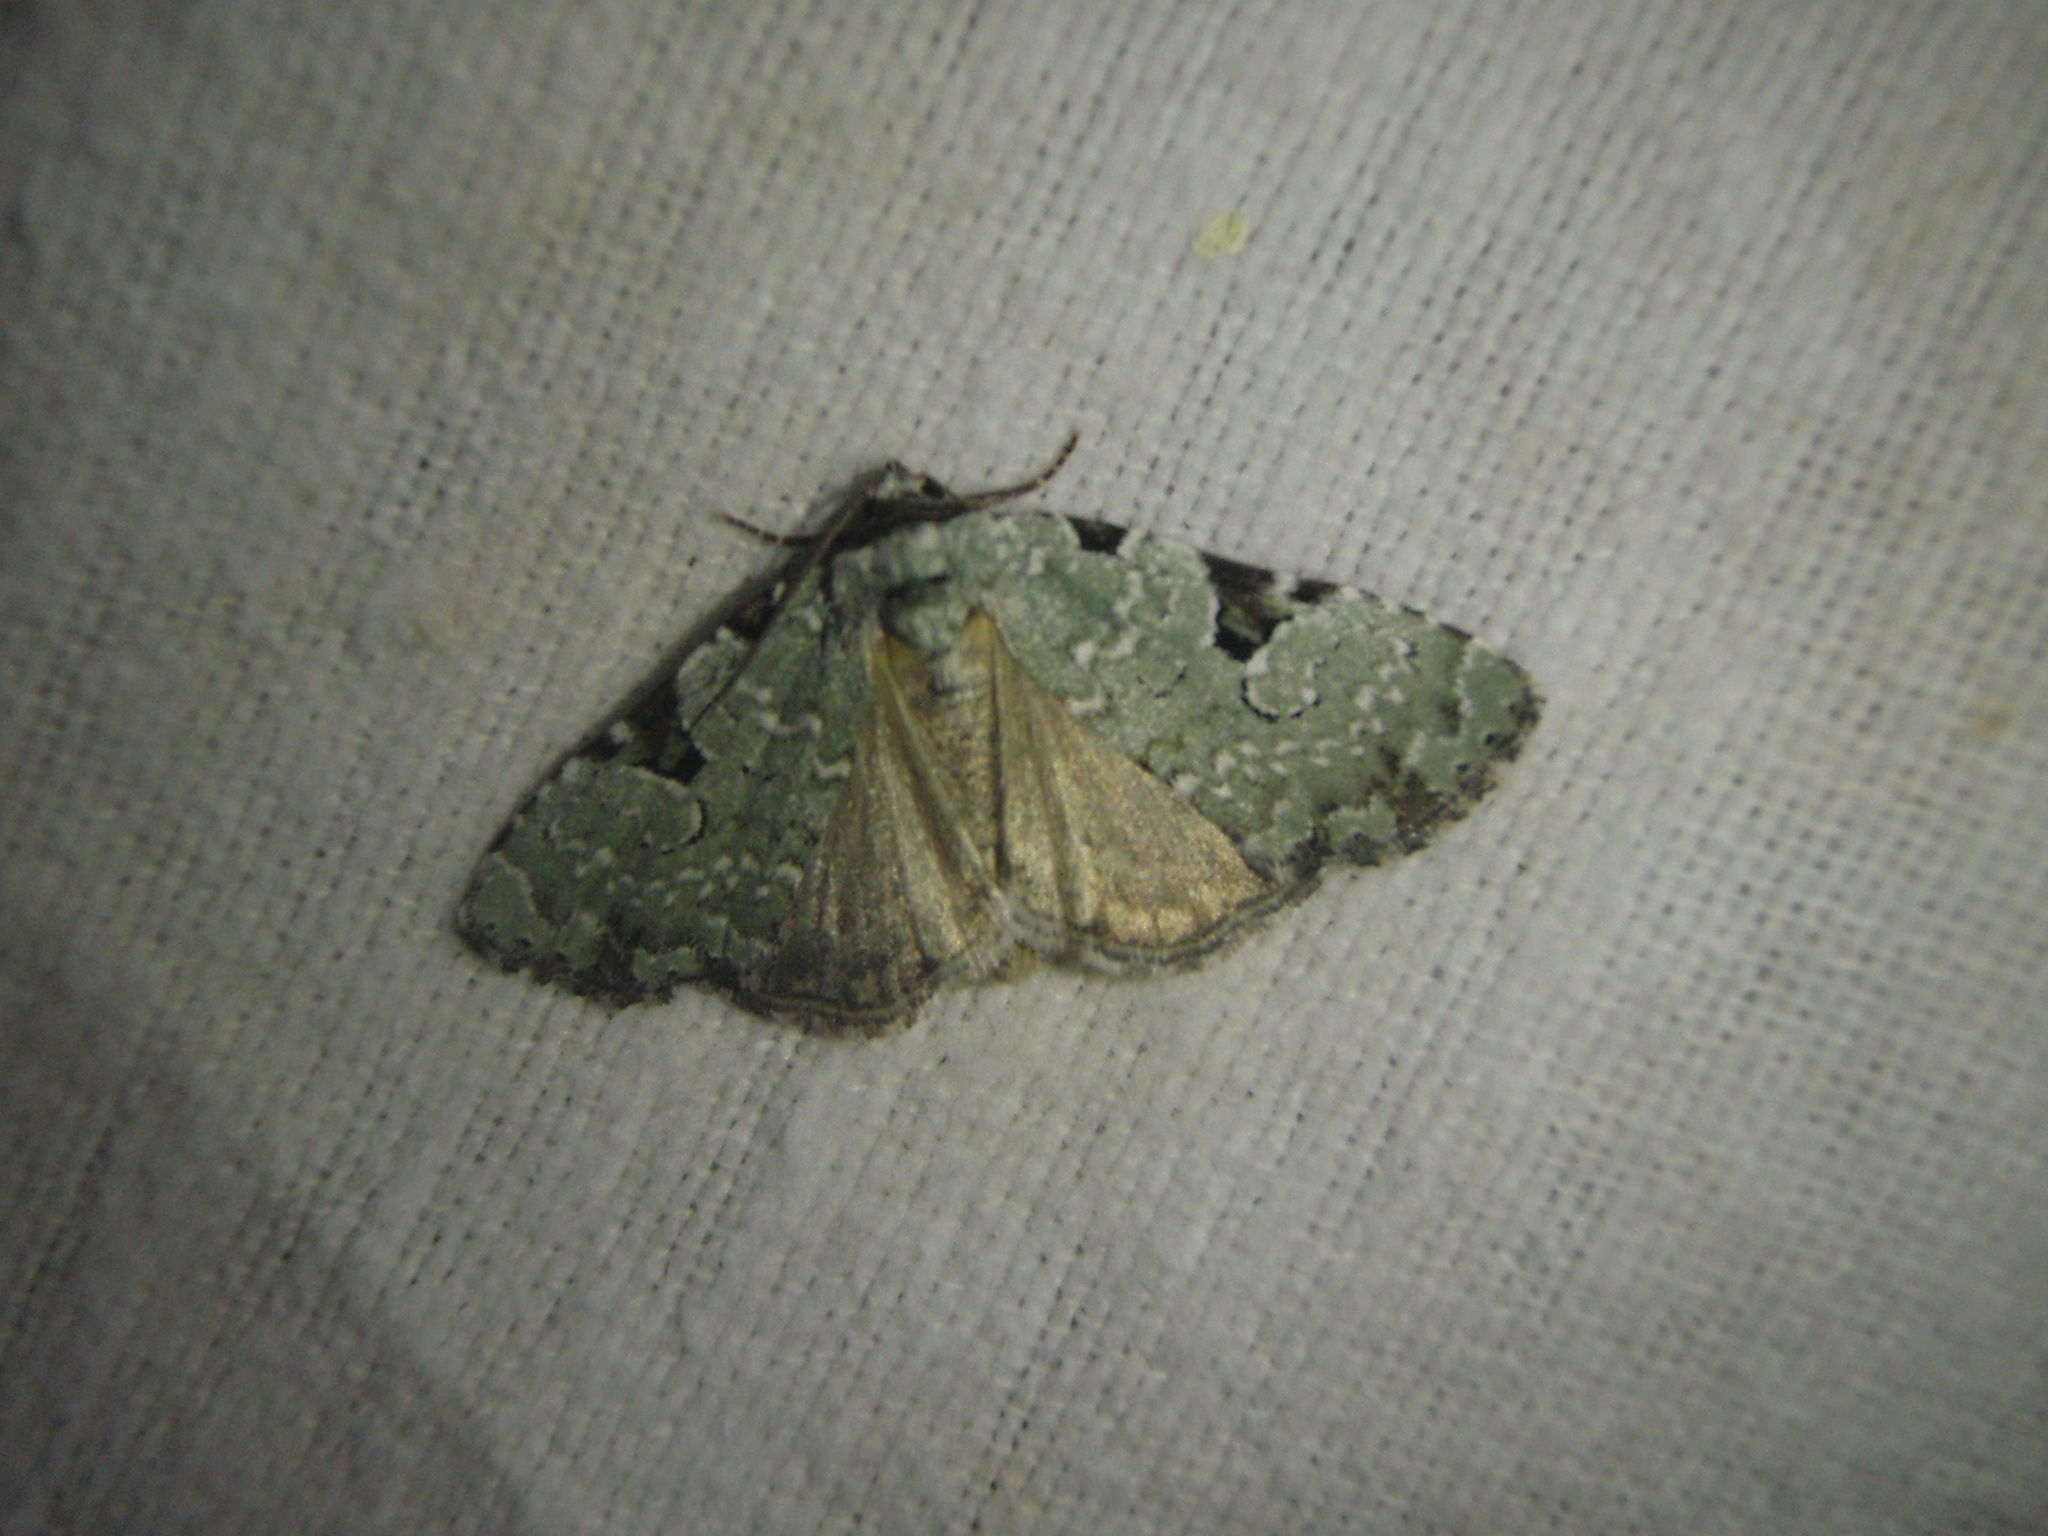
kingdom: Animalia
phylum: Arthropoda
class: Insecta
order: Lepidoptera
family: Noctuidae
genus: Leuconycta
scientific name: Leuconycta diphteroides
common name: Green leuconycta moth
